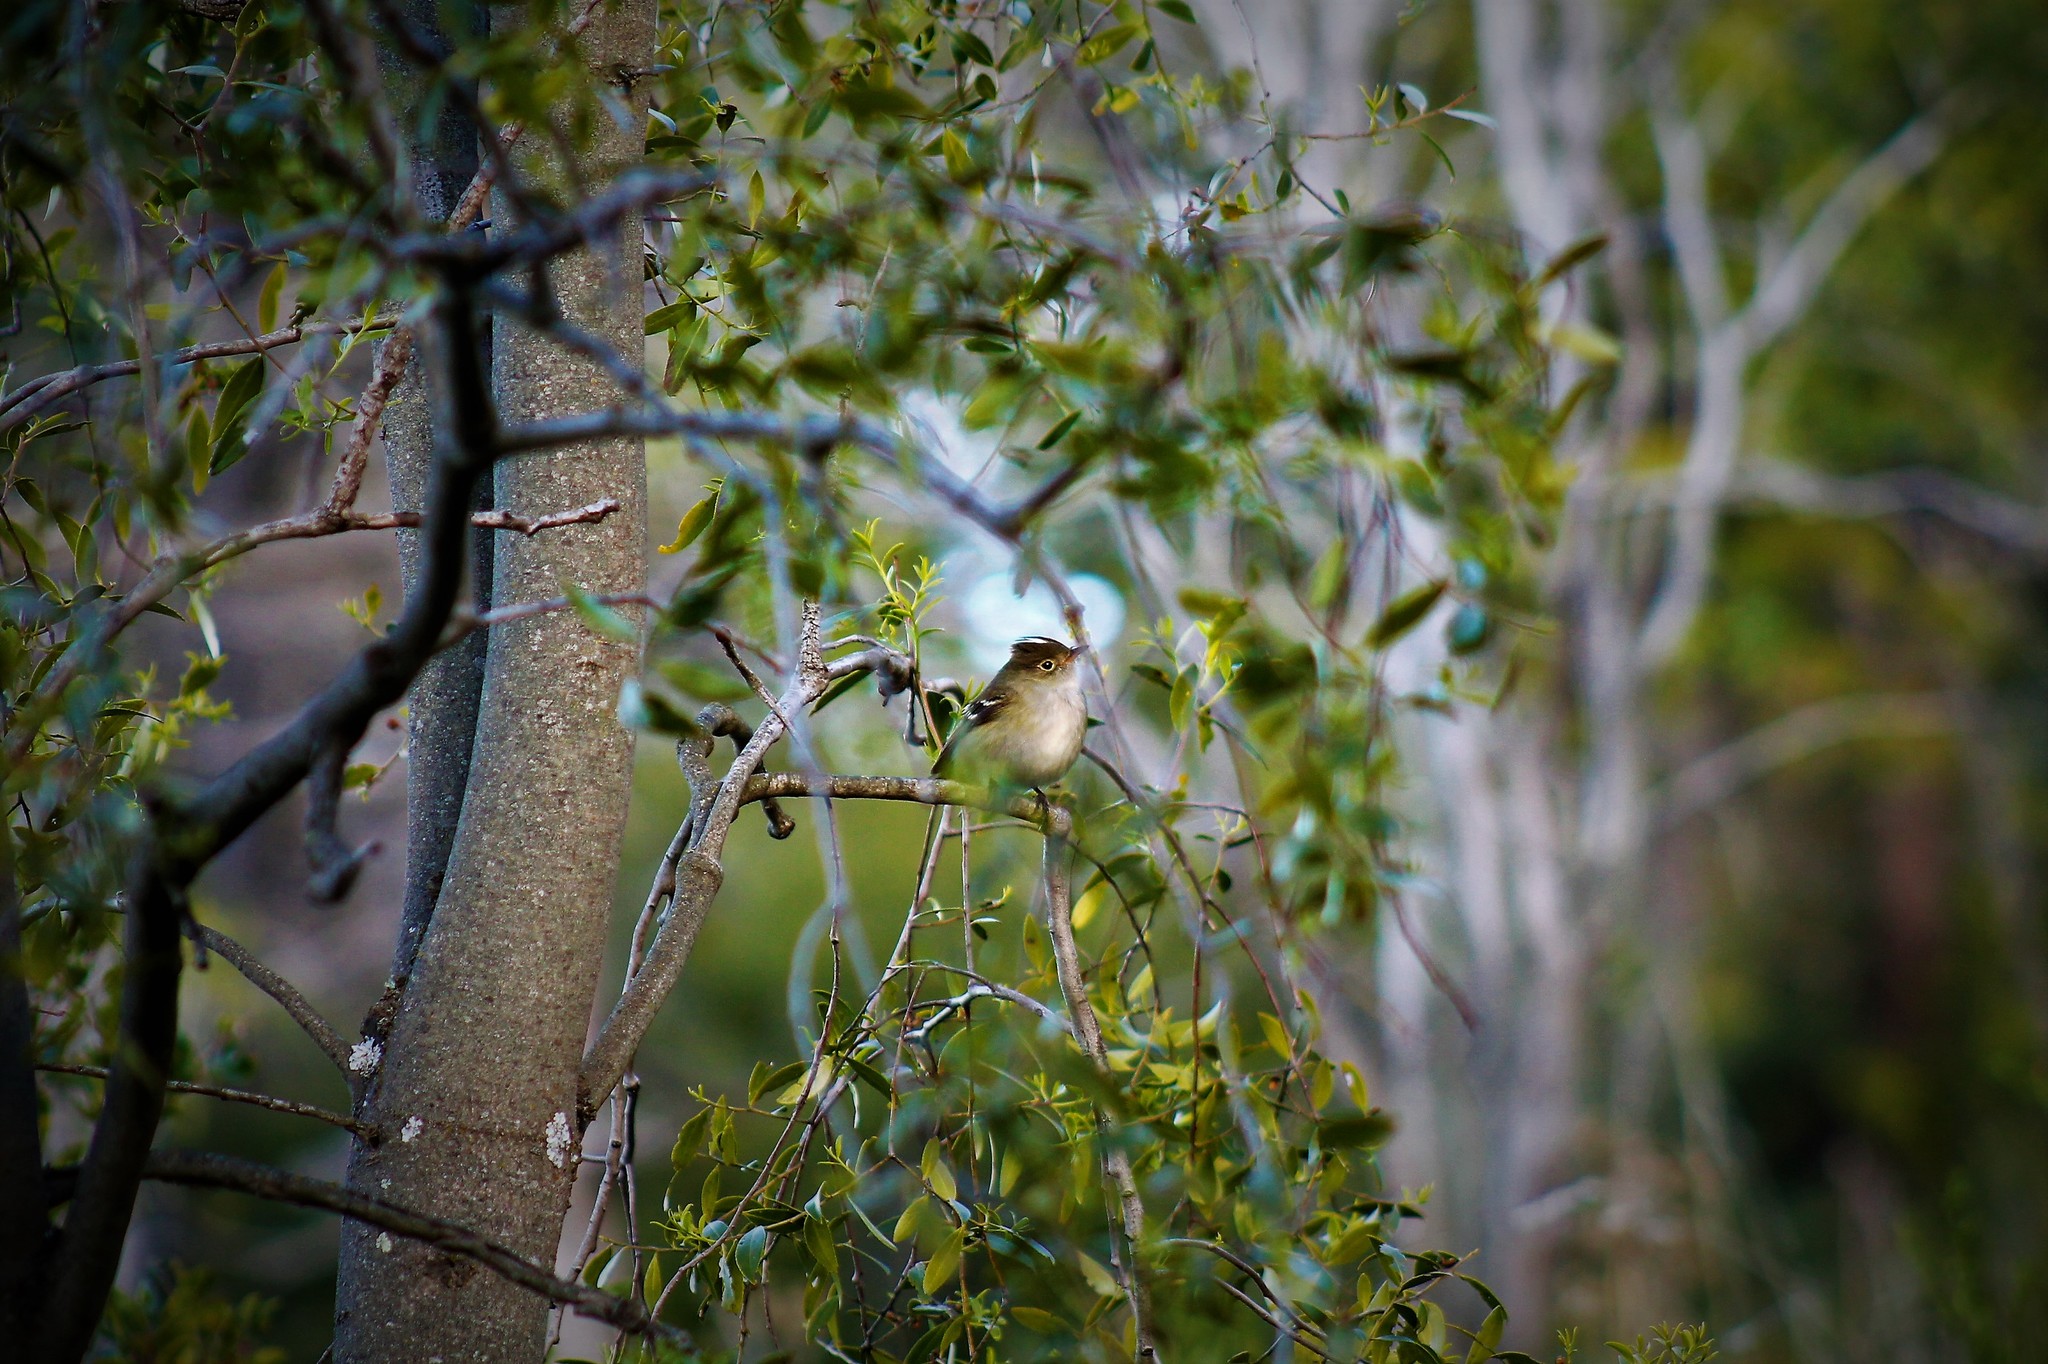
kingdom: Animalia
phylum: Chordata
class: Aves
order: Passeriformes
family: Tyrannidae
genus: Elaenia
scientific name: Elaenia albiceps
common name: White-crested elaenia
